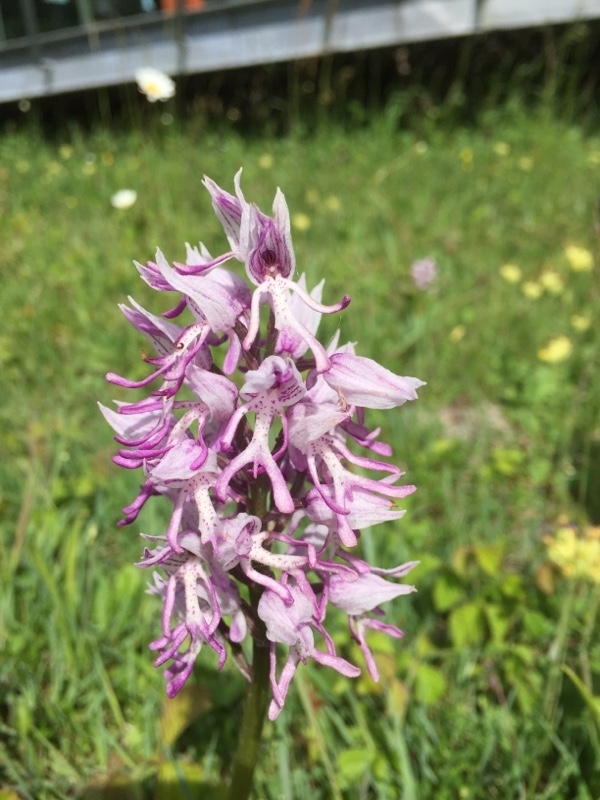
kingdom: Plantae
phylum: Tracheophyta
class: Liliopsida
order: Asparagales
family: Orchidaceae
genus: Orchis
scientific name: Orchis simia
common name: Monkey orchid
